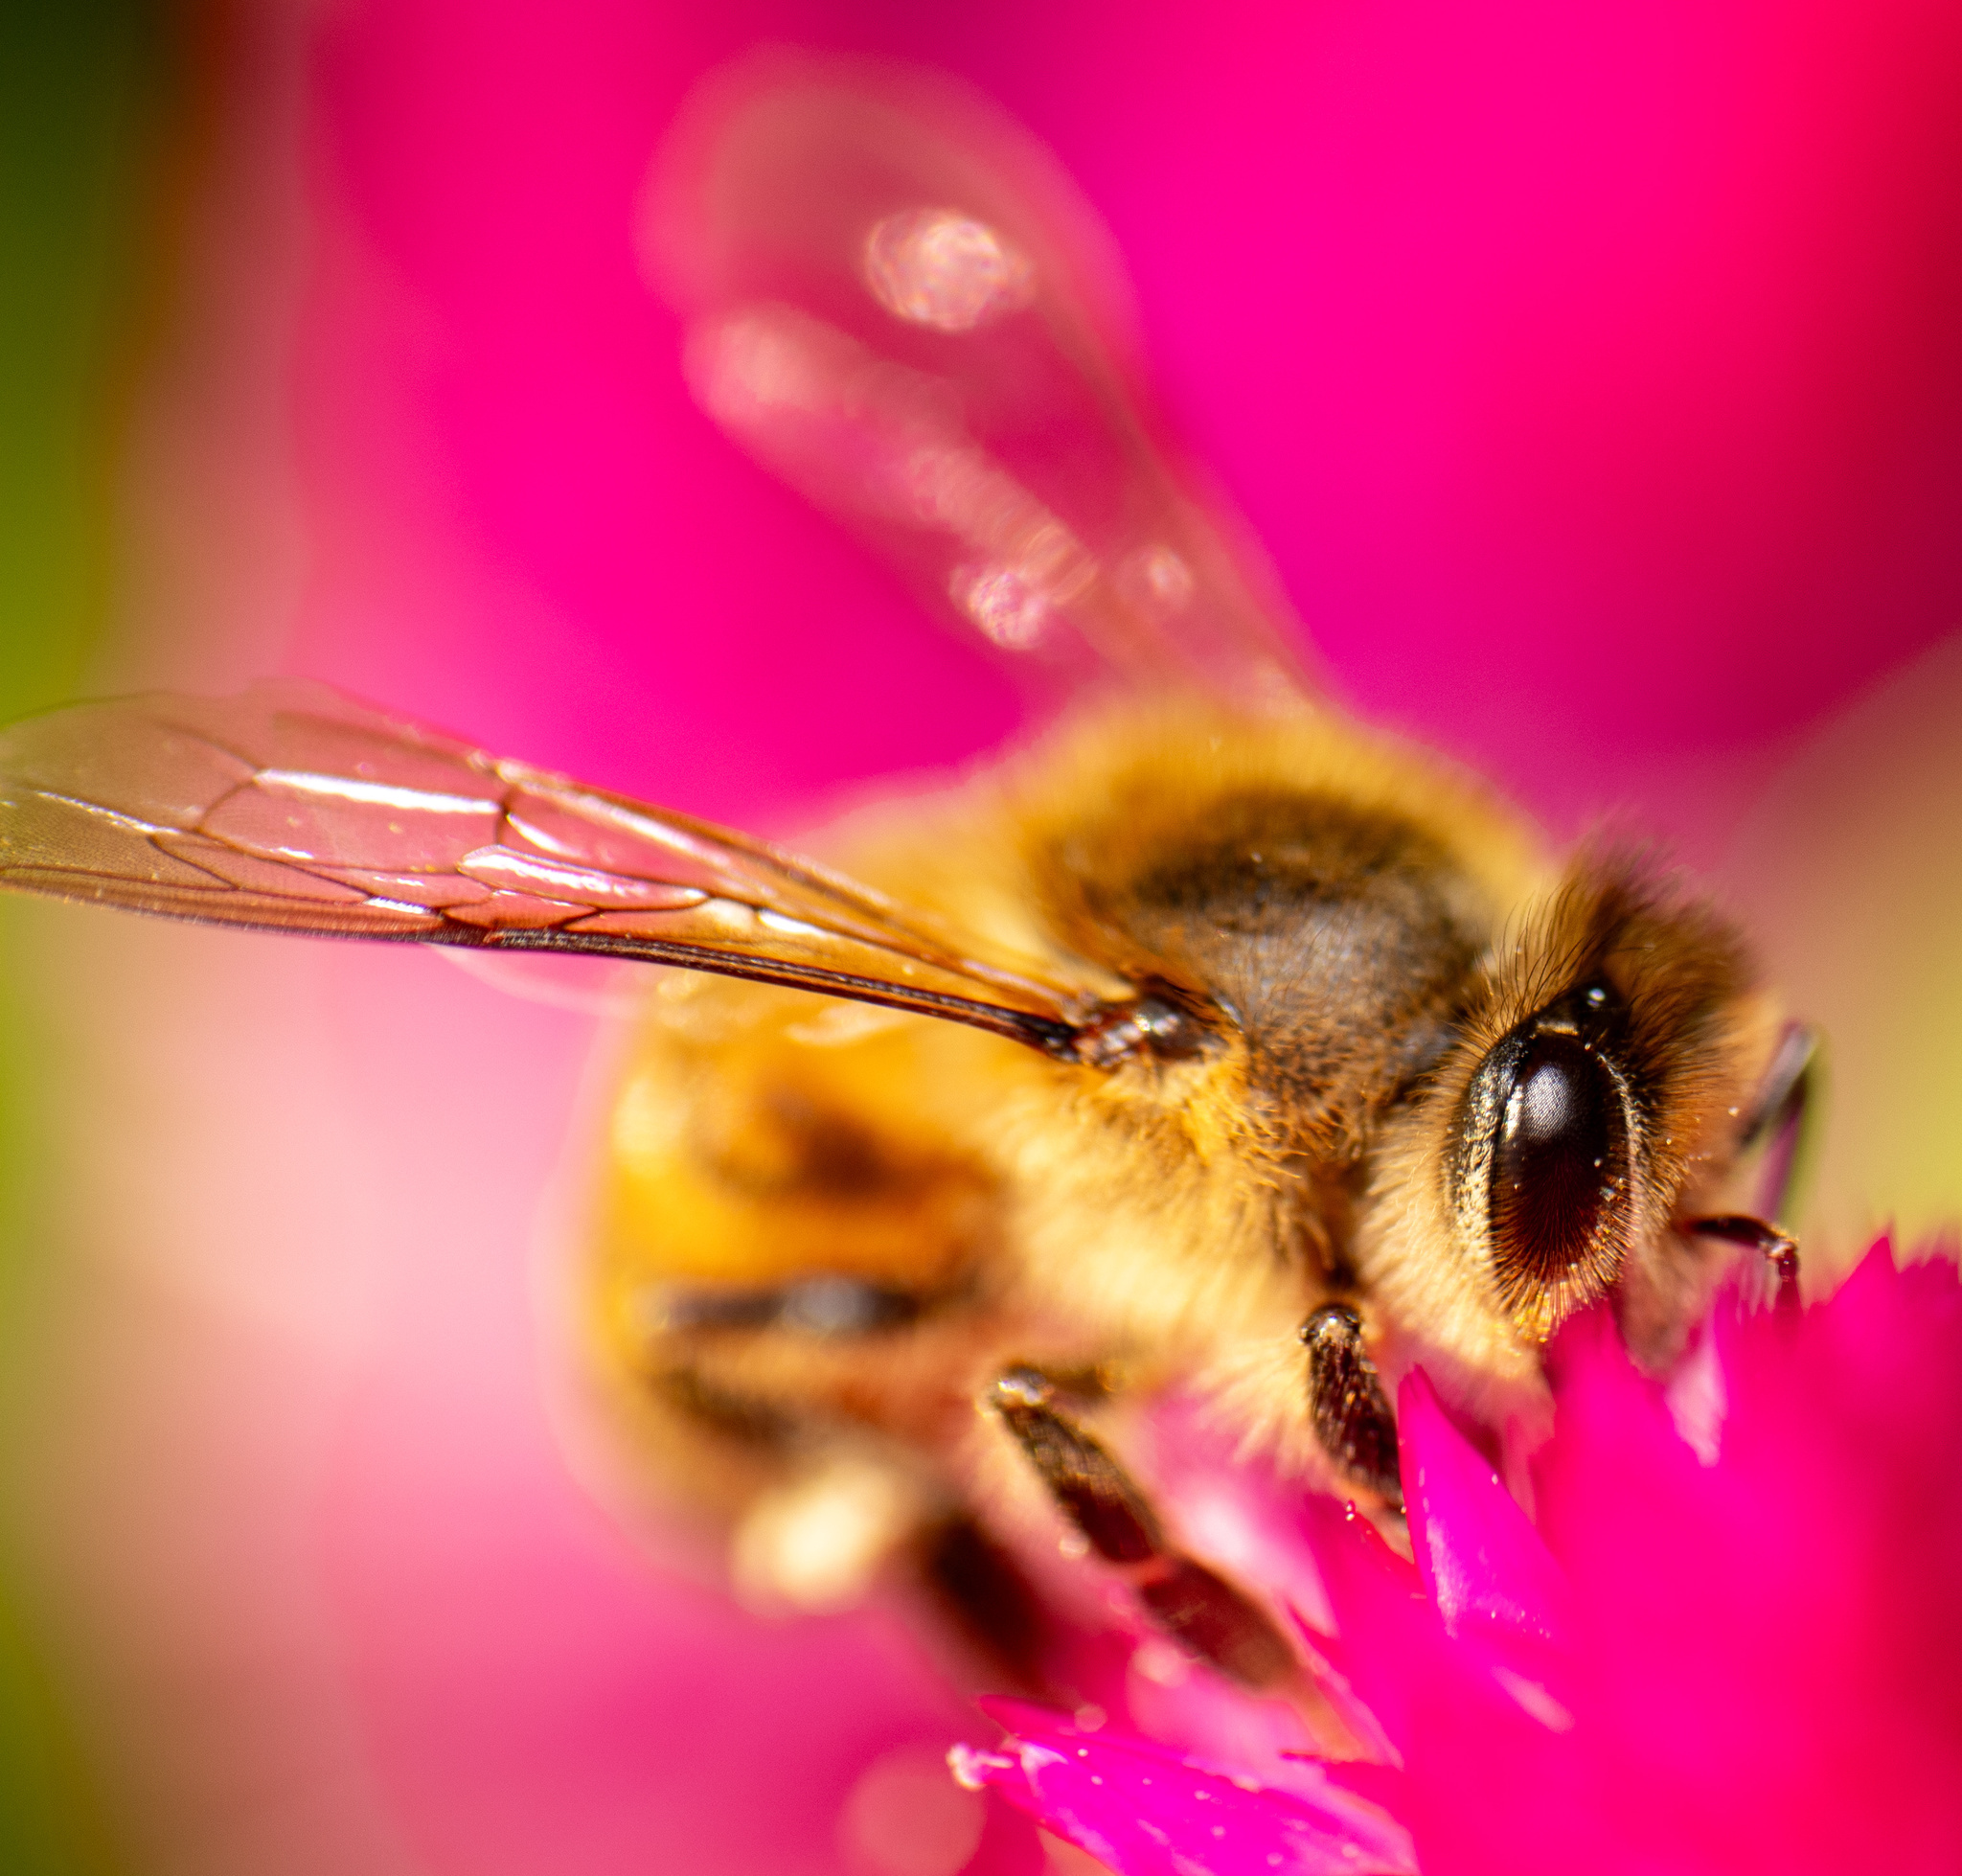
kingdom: Animalia
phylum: Arthropoda
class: Insecta
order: Hymenoptera
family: Apidae
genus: Apis
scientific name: Apis mellifera
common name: Honey bee
